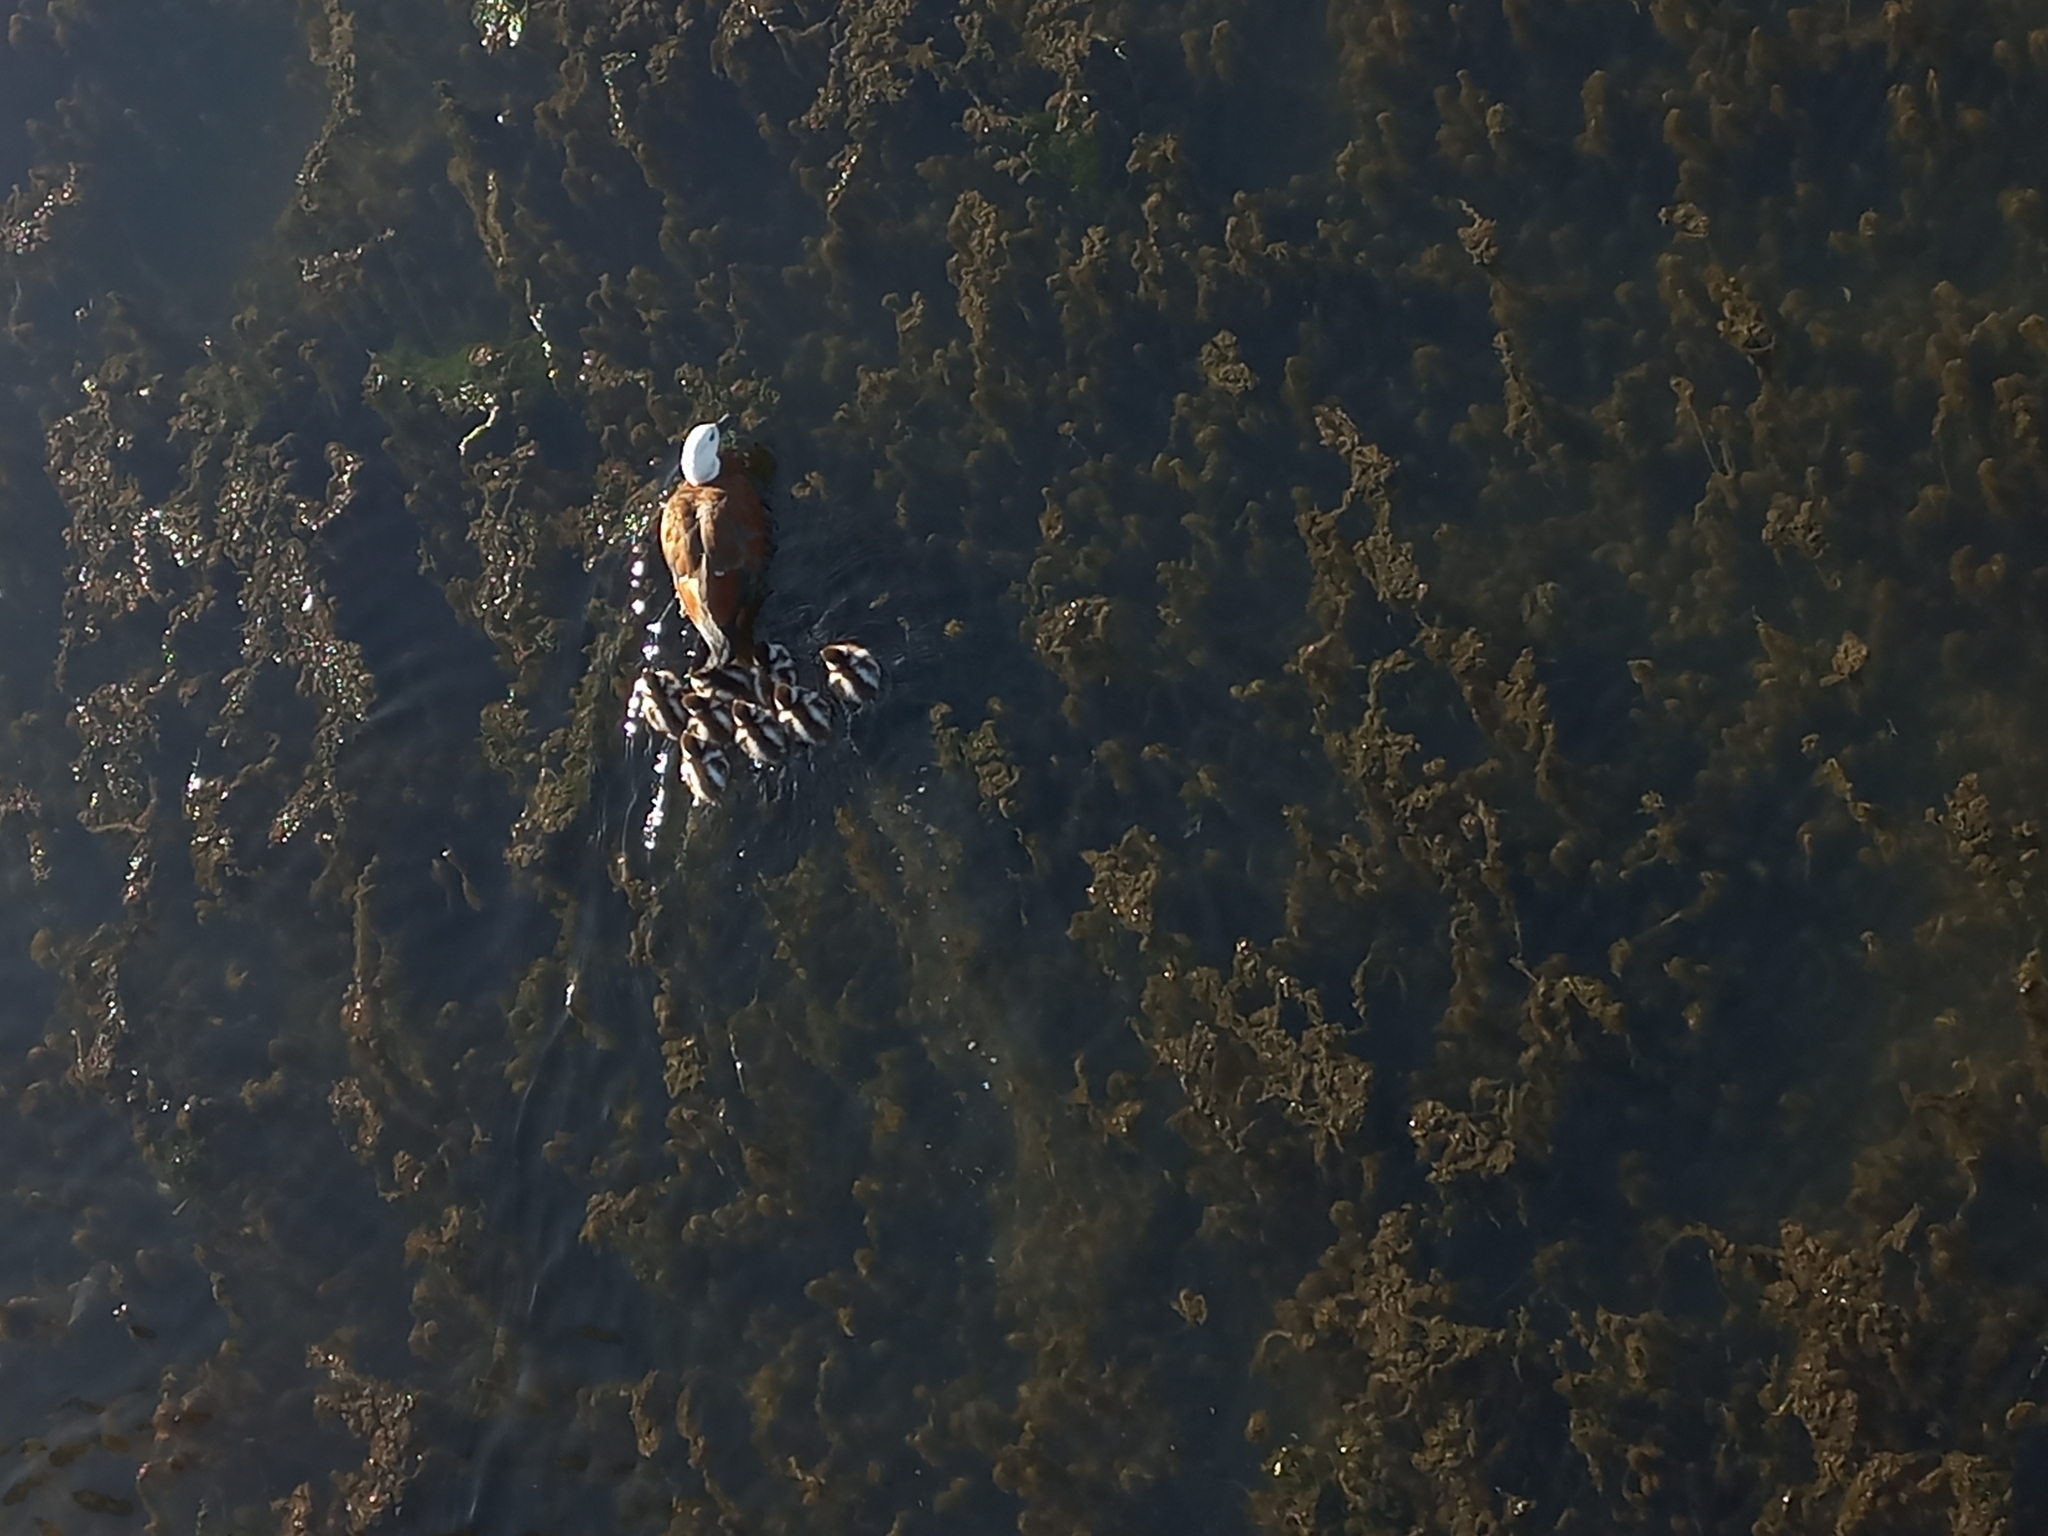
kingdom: Animalia
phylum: Chordata
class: Aves
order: Anseriformes
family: Anatidae
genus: Tadorna
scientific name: Tadorna variegata
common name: Paradise shelduck
